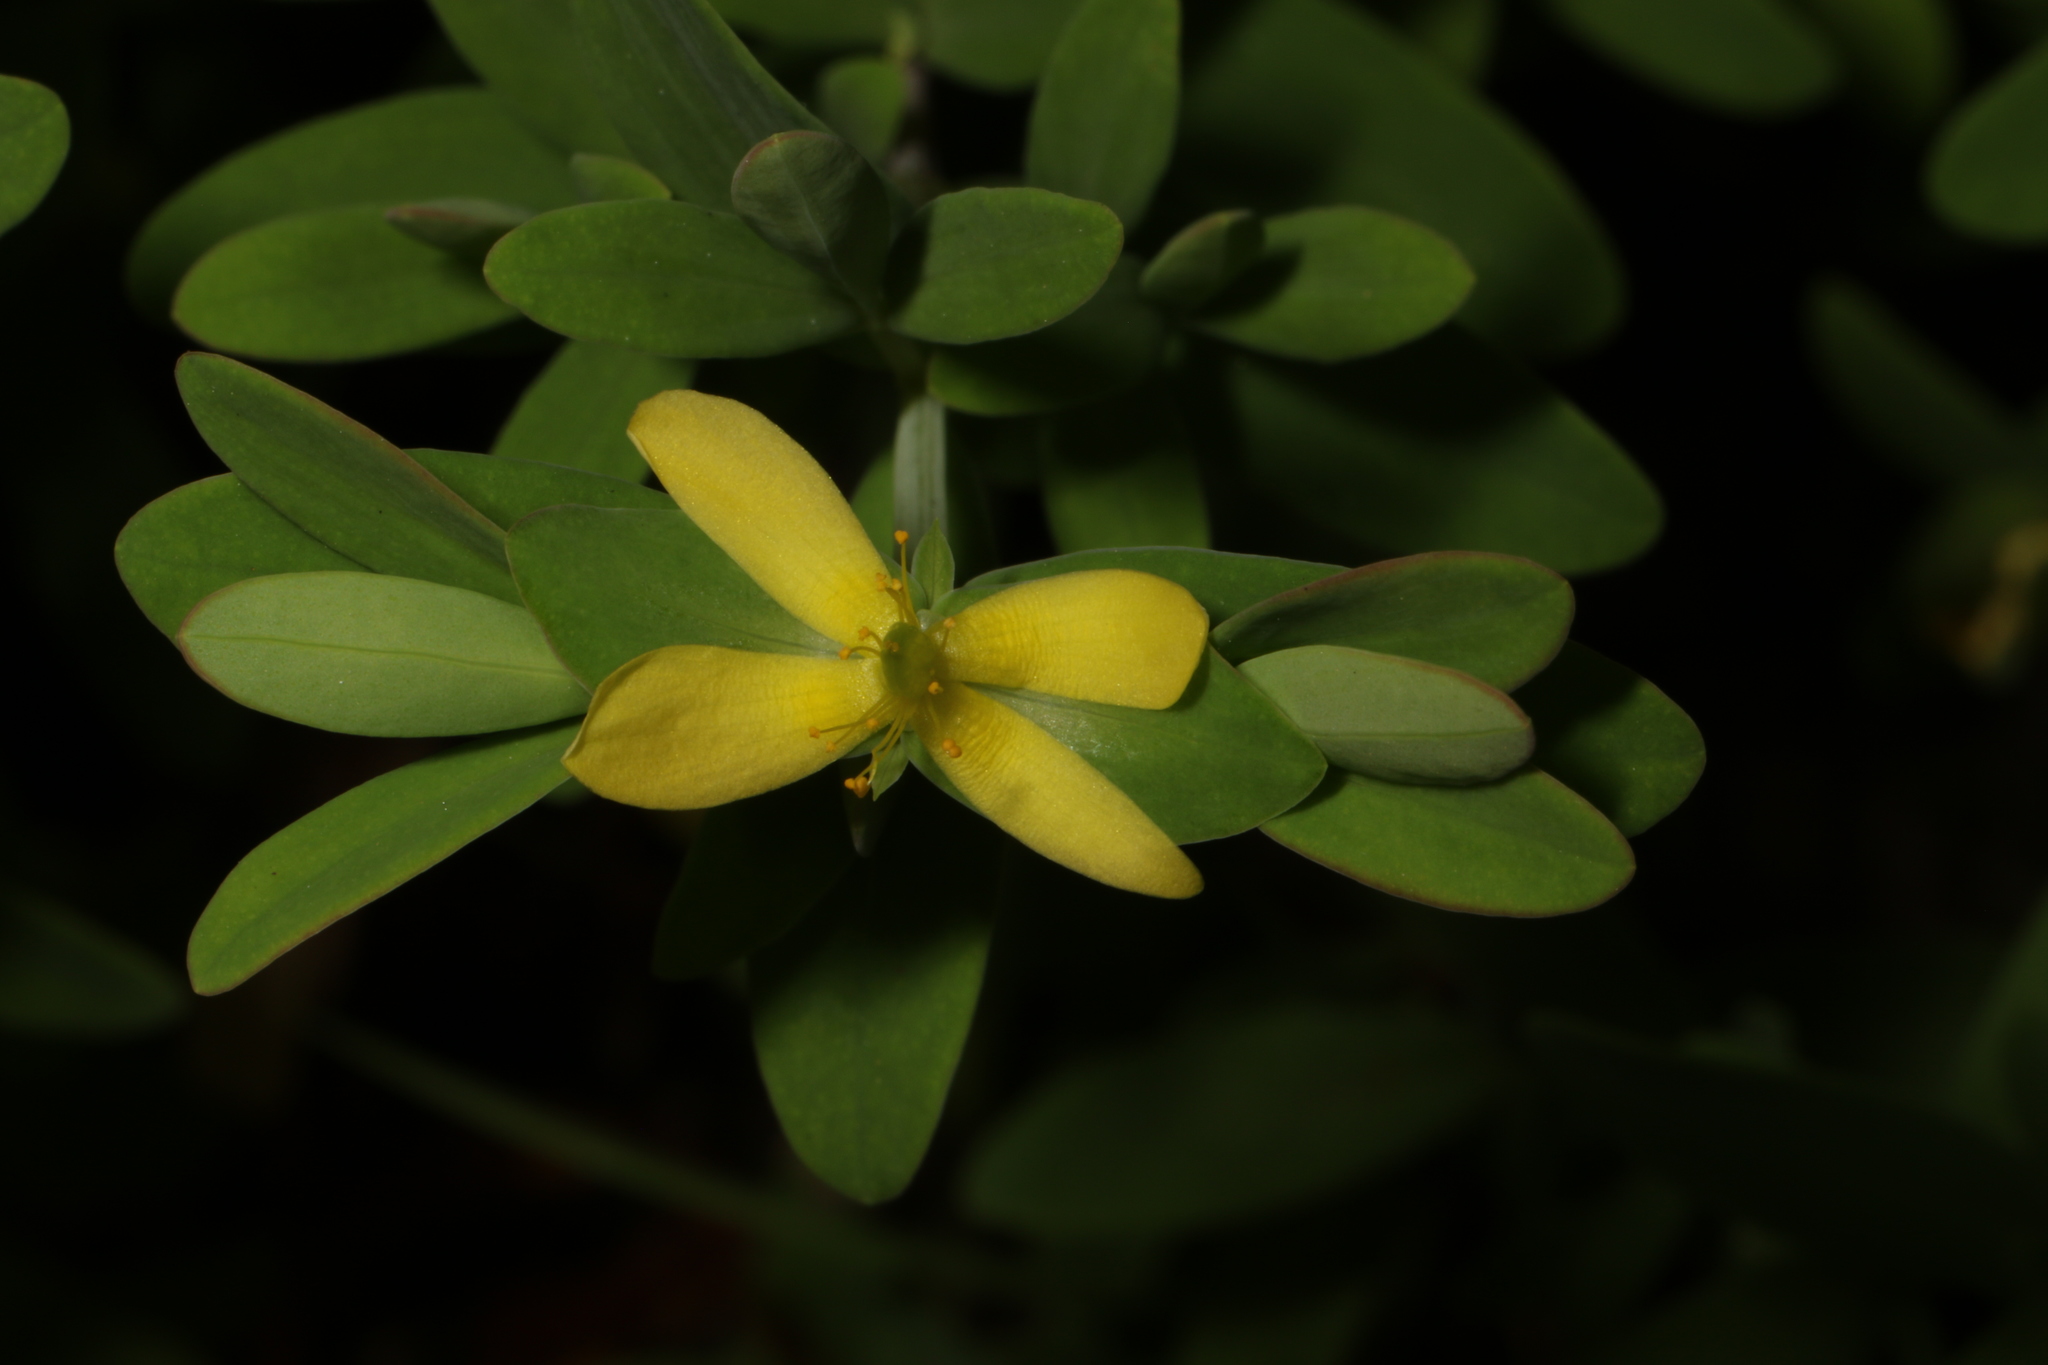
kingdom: Plantae
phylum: Tracheophyta
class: Magnoliopsida
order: Malpighiales
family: Hypericaceae
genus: Hypericum
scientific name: Hypericum hypericoides
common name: St. andrew's cross
